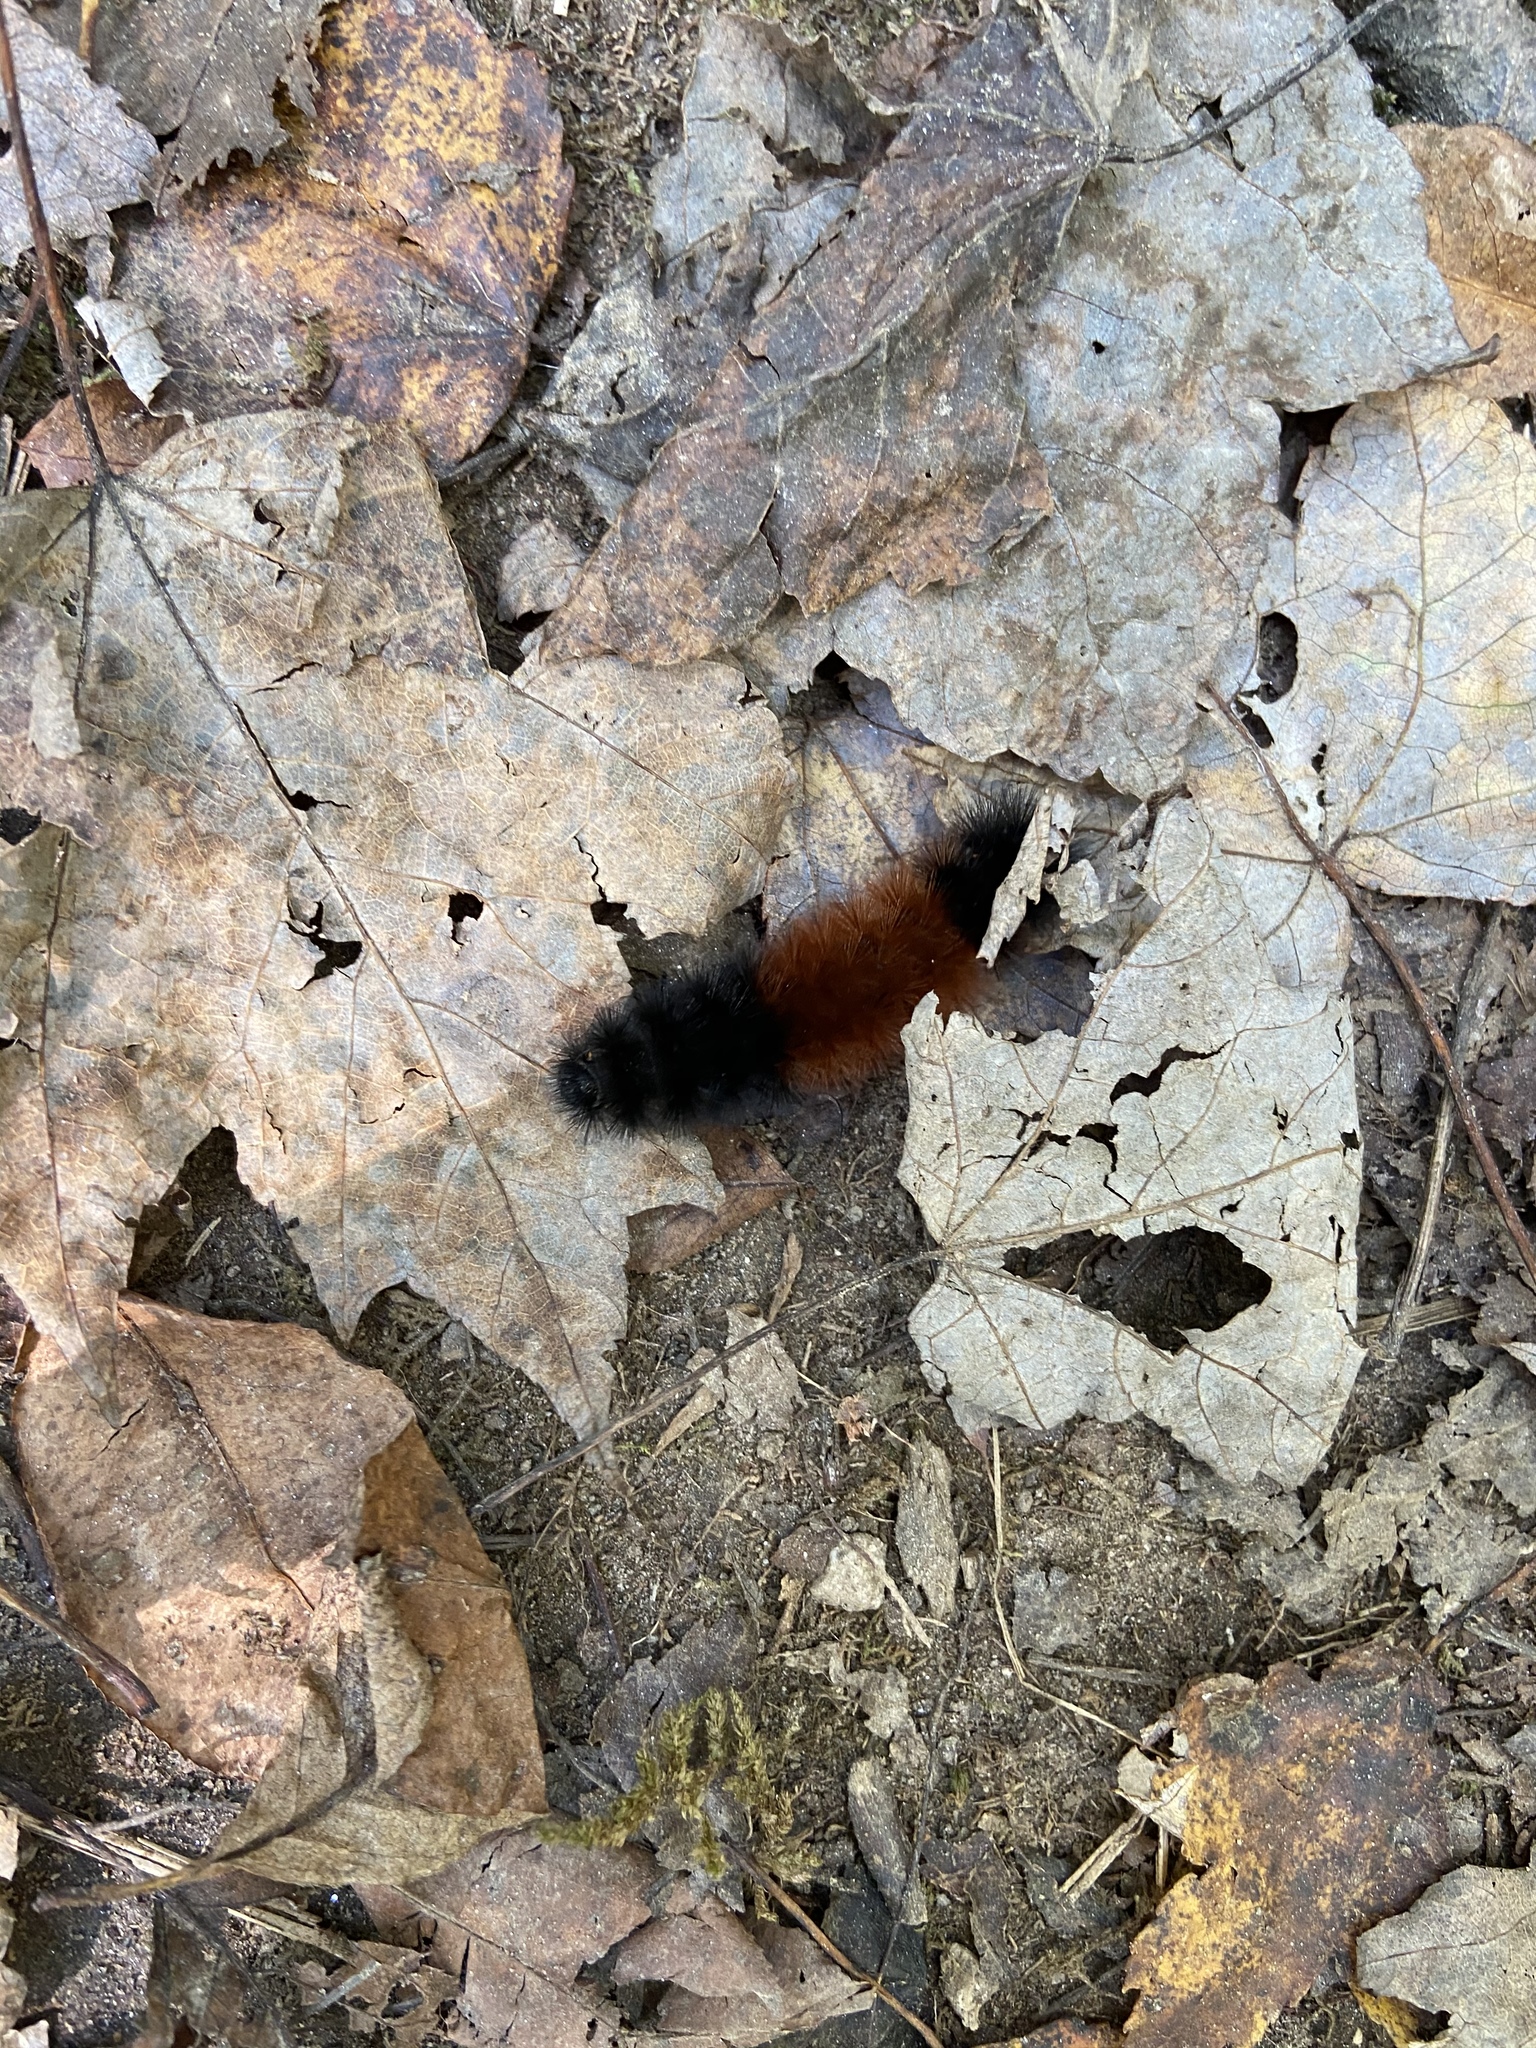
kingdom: Animalia
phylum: Arthropoda
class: Insecta
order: Lepidoptera
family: Erebidae
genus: Pyrrharctia
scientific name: Pyrrharctia isabella
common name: Isabella tiger moth
